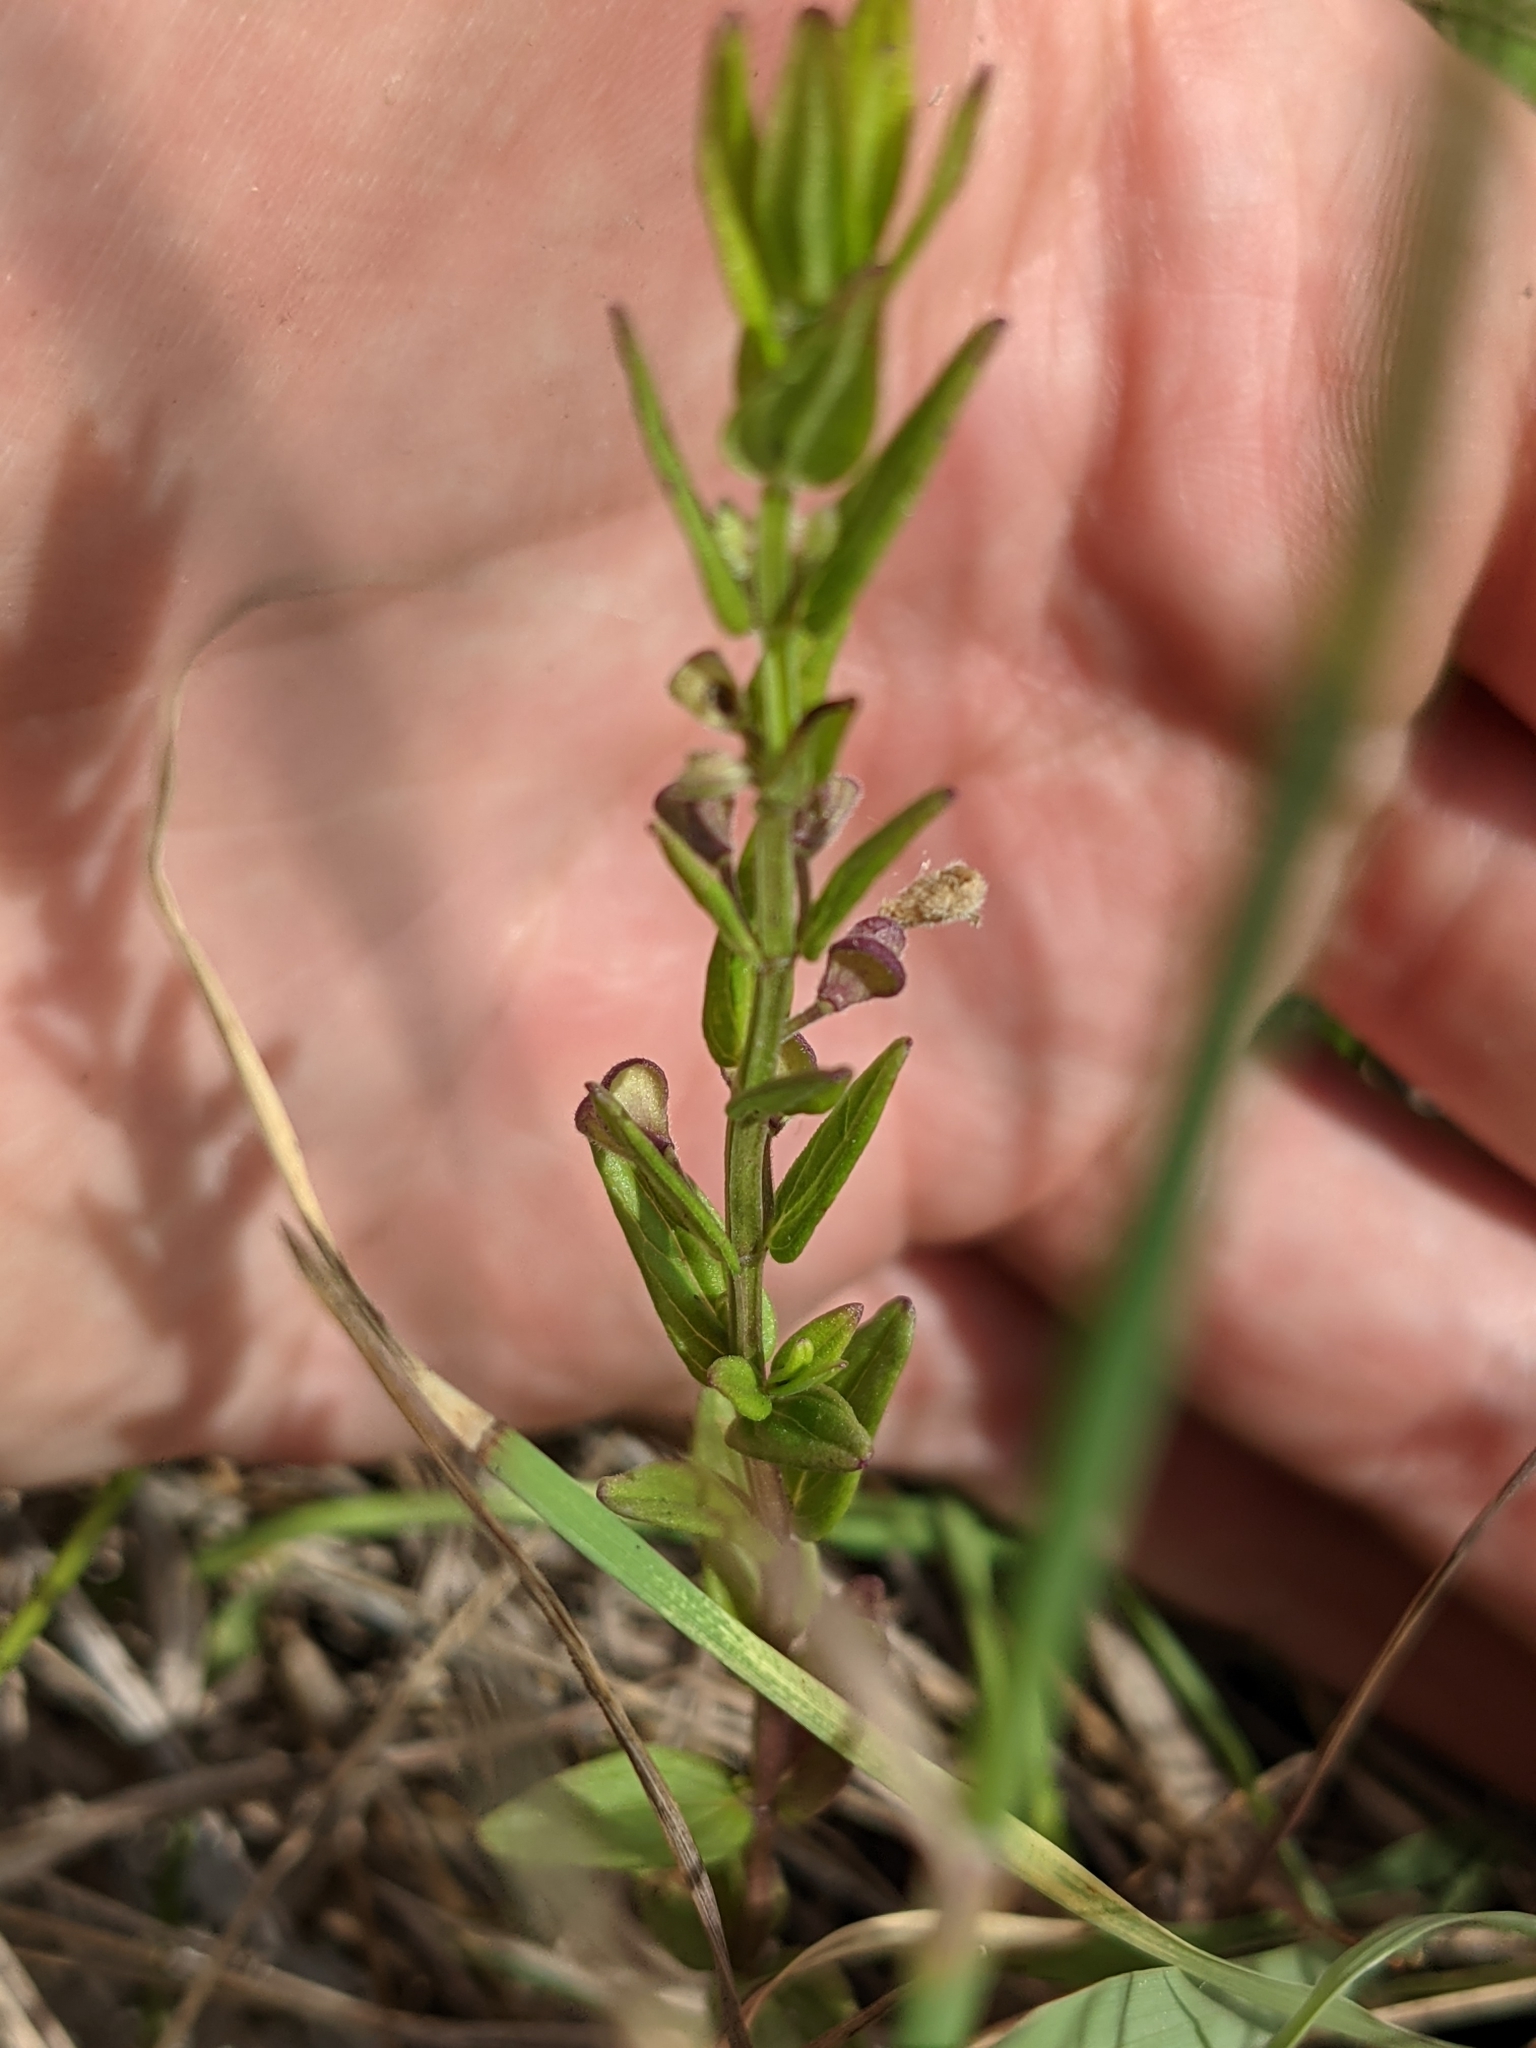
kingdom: Plantae
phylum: Tracheophyta
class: Magnoliopsida
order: Lamiales
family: Lamiaceae
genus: Scutellaria
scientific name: Scutellaria parvula
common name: Little scullcap
